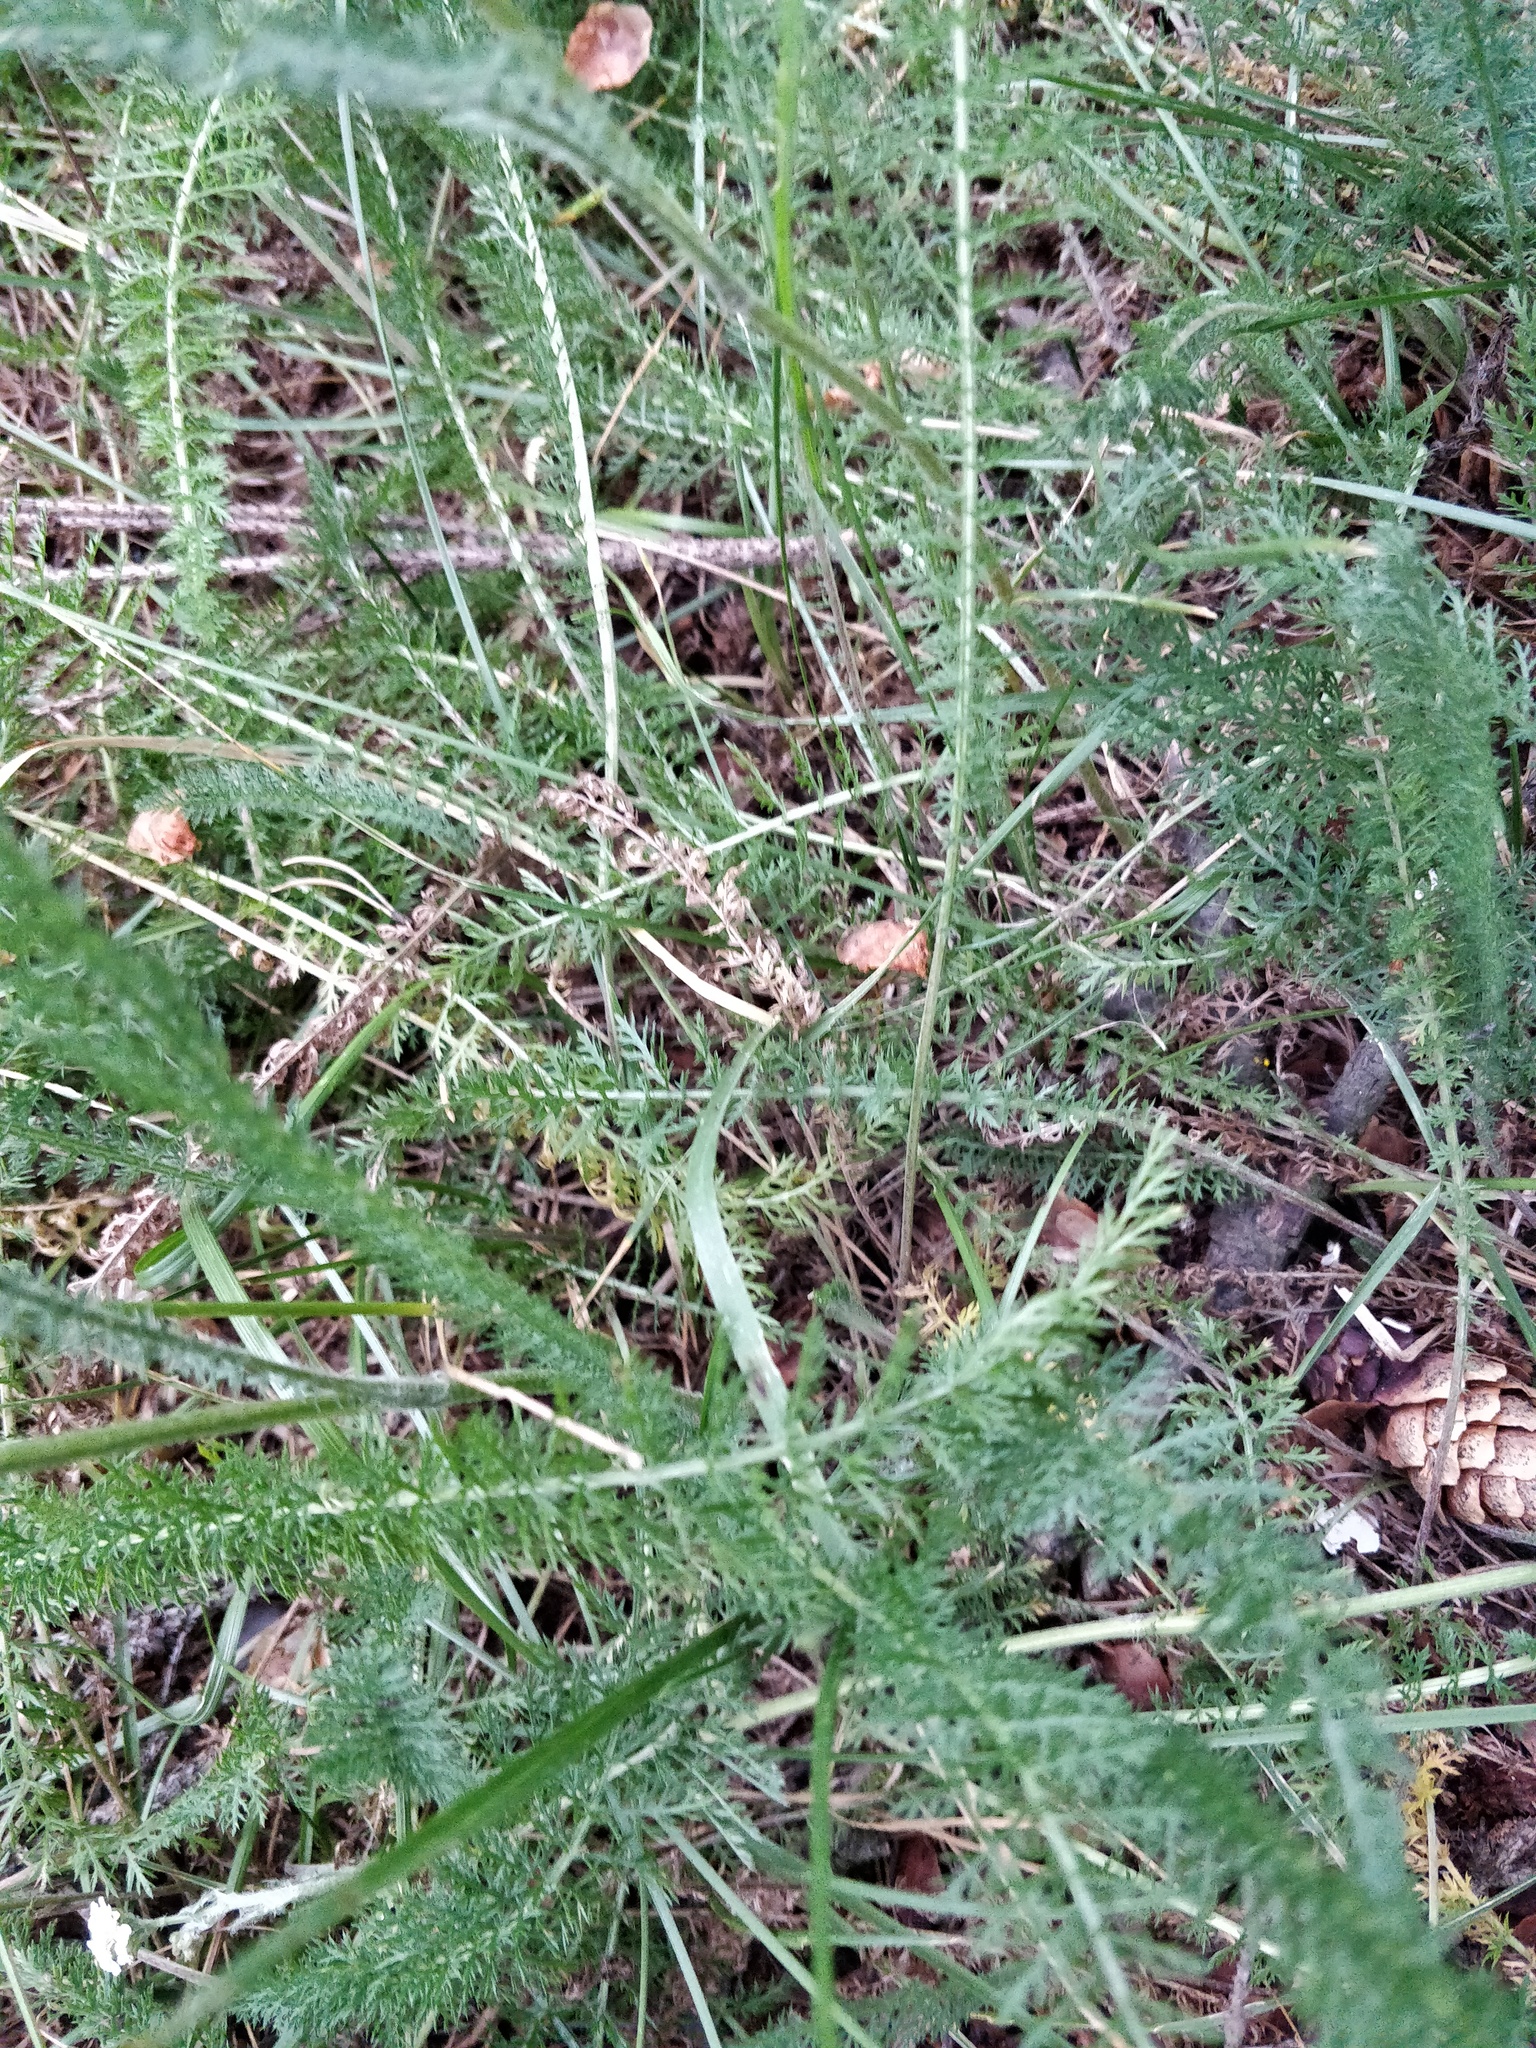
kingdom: Plantae
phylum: Tracheophyta
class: Magnoliopsida
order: Asterales
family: Asteraceae
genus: Achillea
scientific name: Achillea millefolium
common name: Yarrow
